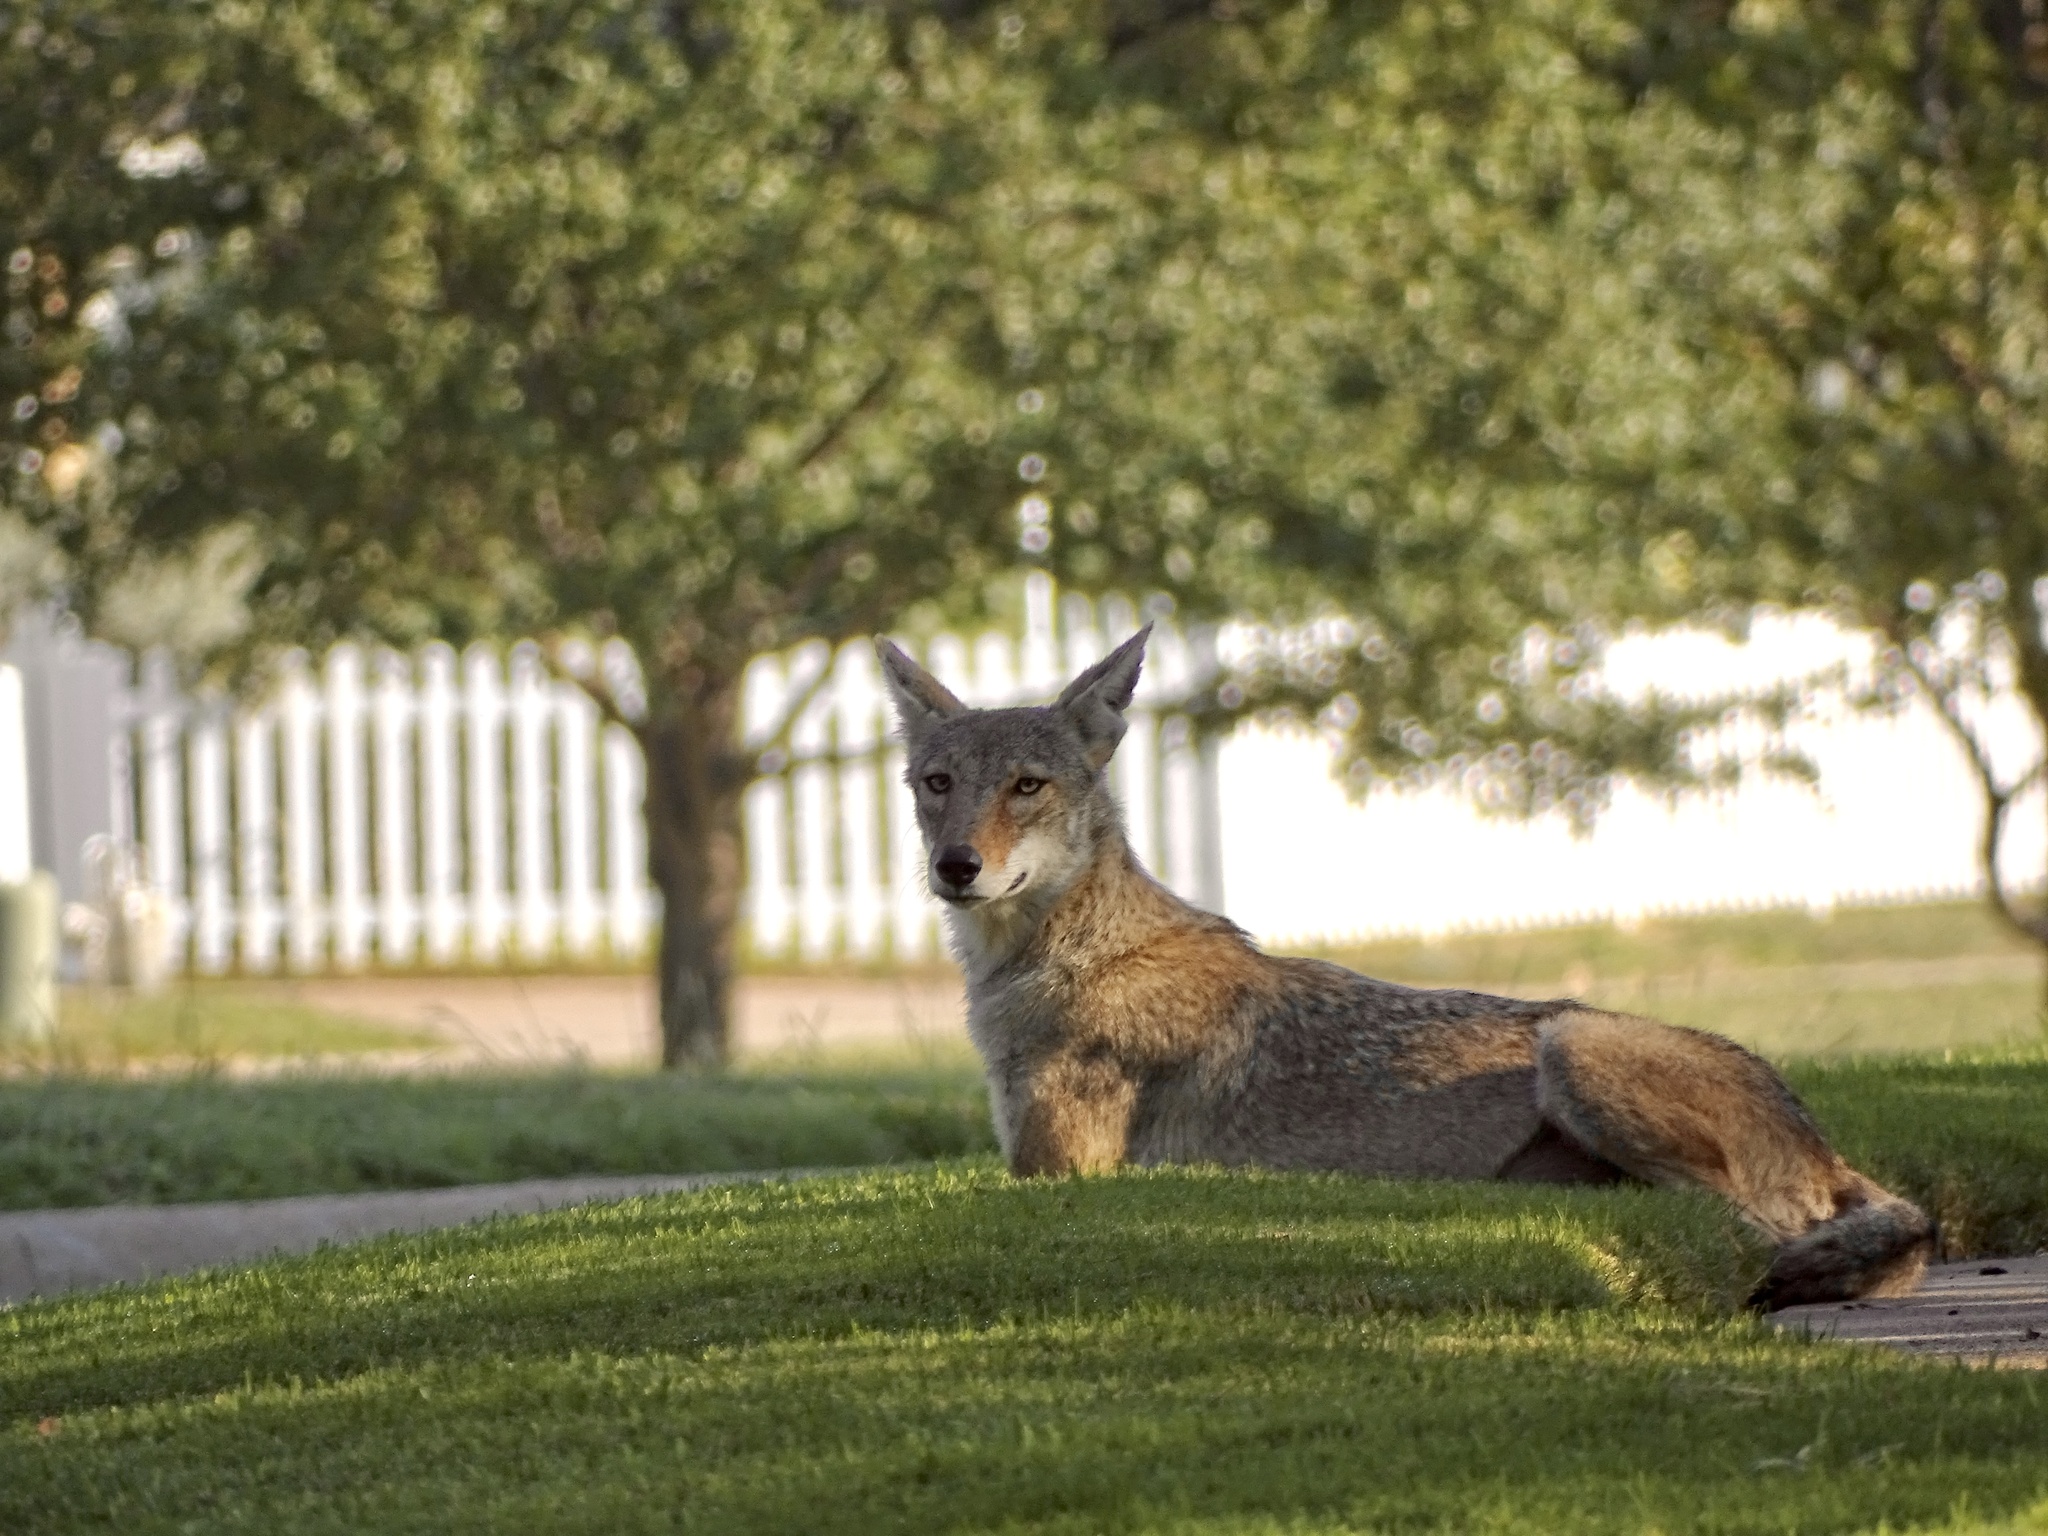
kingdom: Animalia
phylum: Chordata
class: Mammalia
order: Carnivora
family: Canidae
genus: Canis
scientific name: Canis latrans
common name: Coyote
